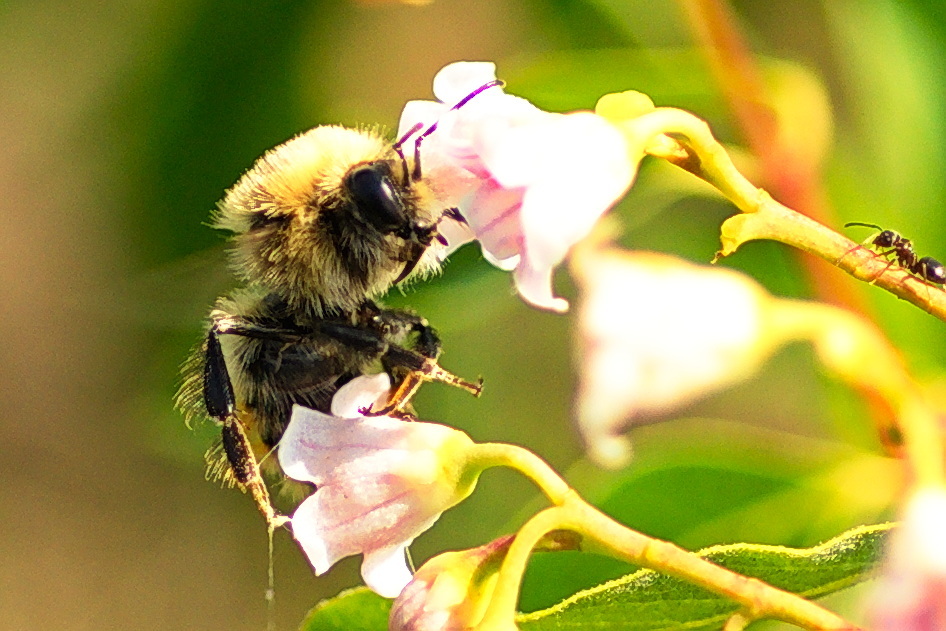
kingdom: Animalia
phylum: Arthropoda
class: Insecta
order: Hymenoptera
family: Apidae
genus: Bombus
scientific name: Bombus rufocinctus
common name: Red-belted bumble bee
